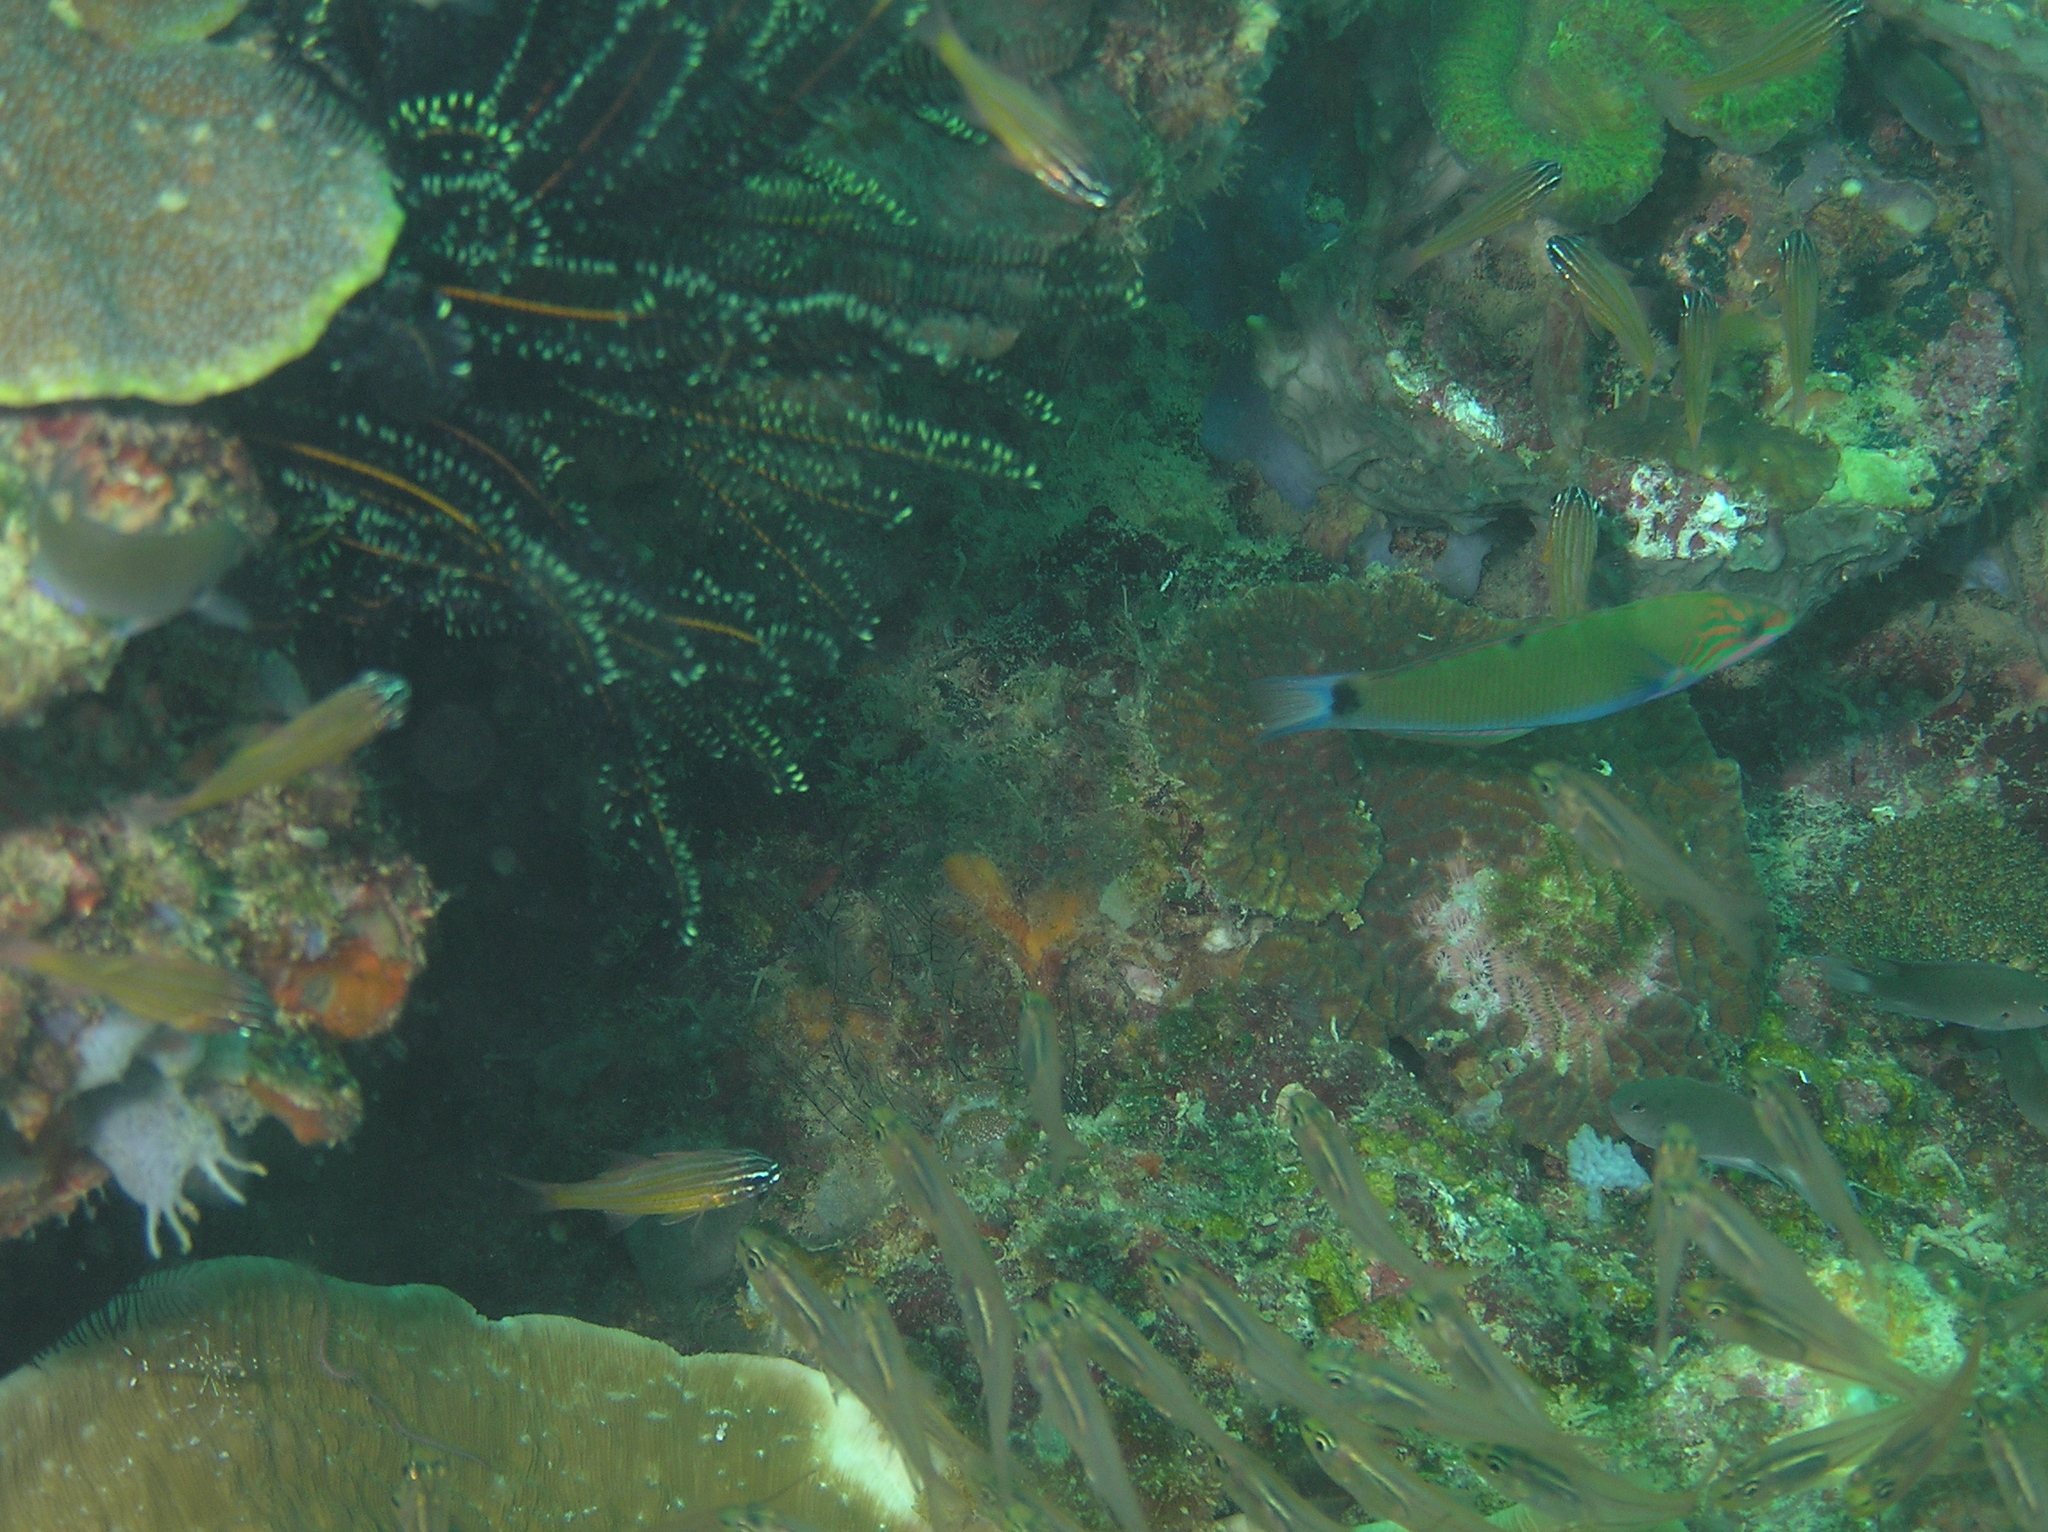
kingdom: Animalia
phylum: Chordata
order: Perciformes
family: Labridae
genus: Thalassoma
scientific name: Thalassoma lunare
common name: Blue wrasse
